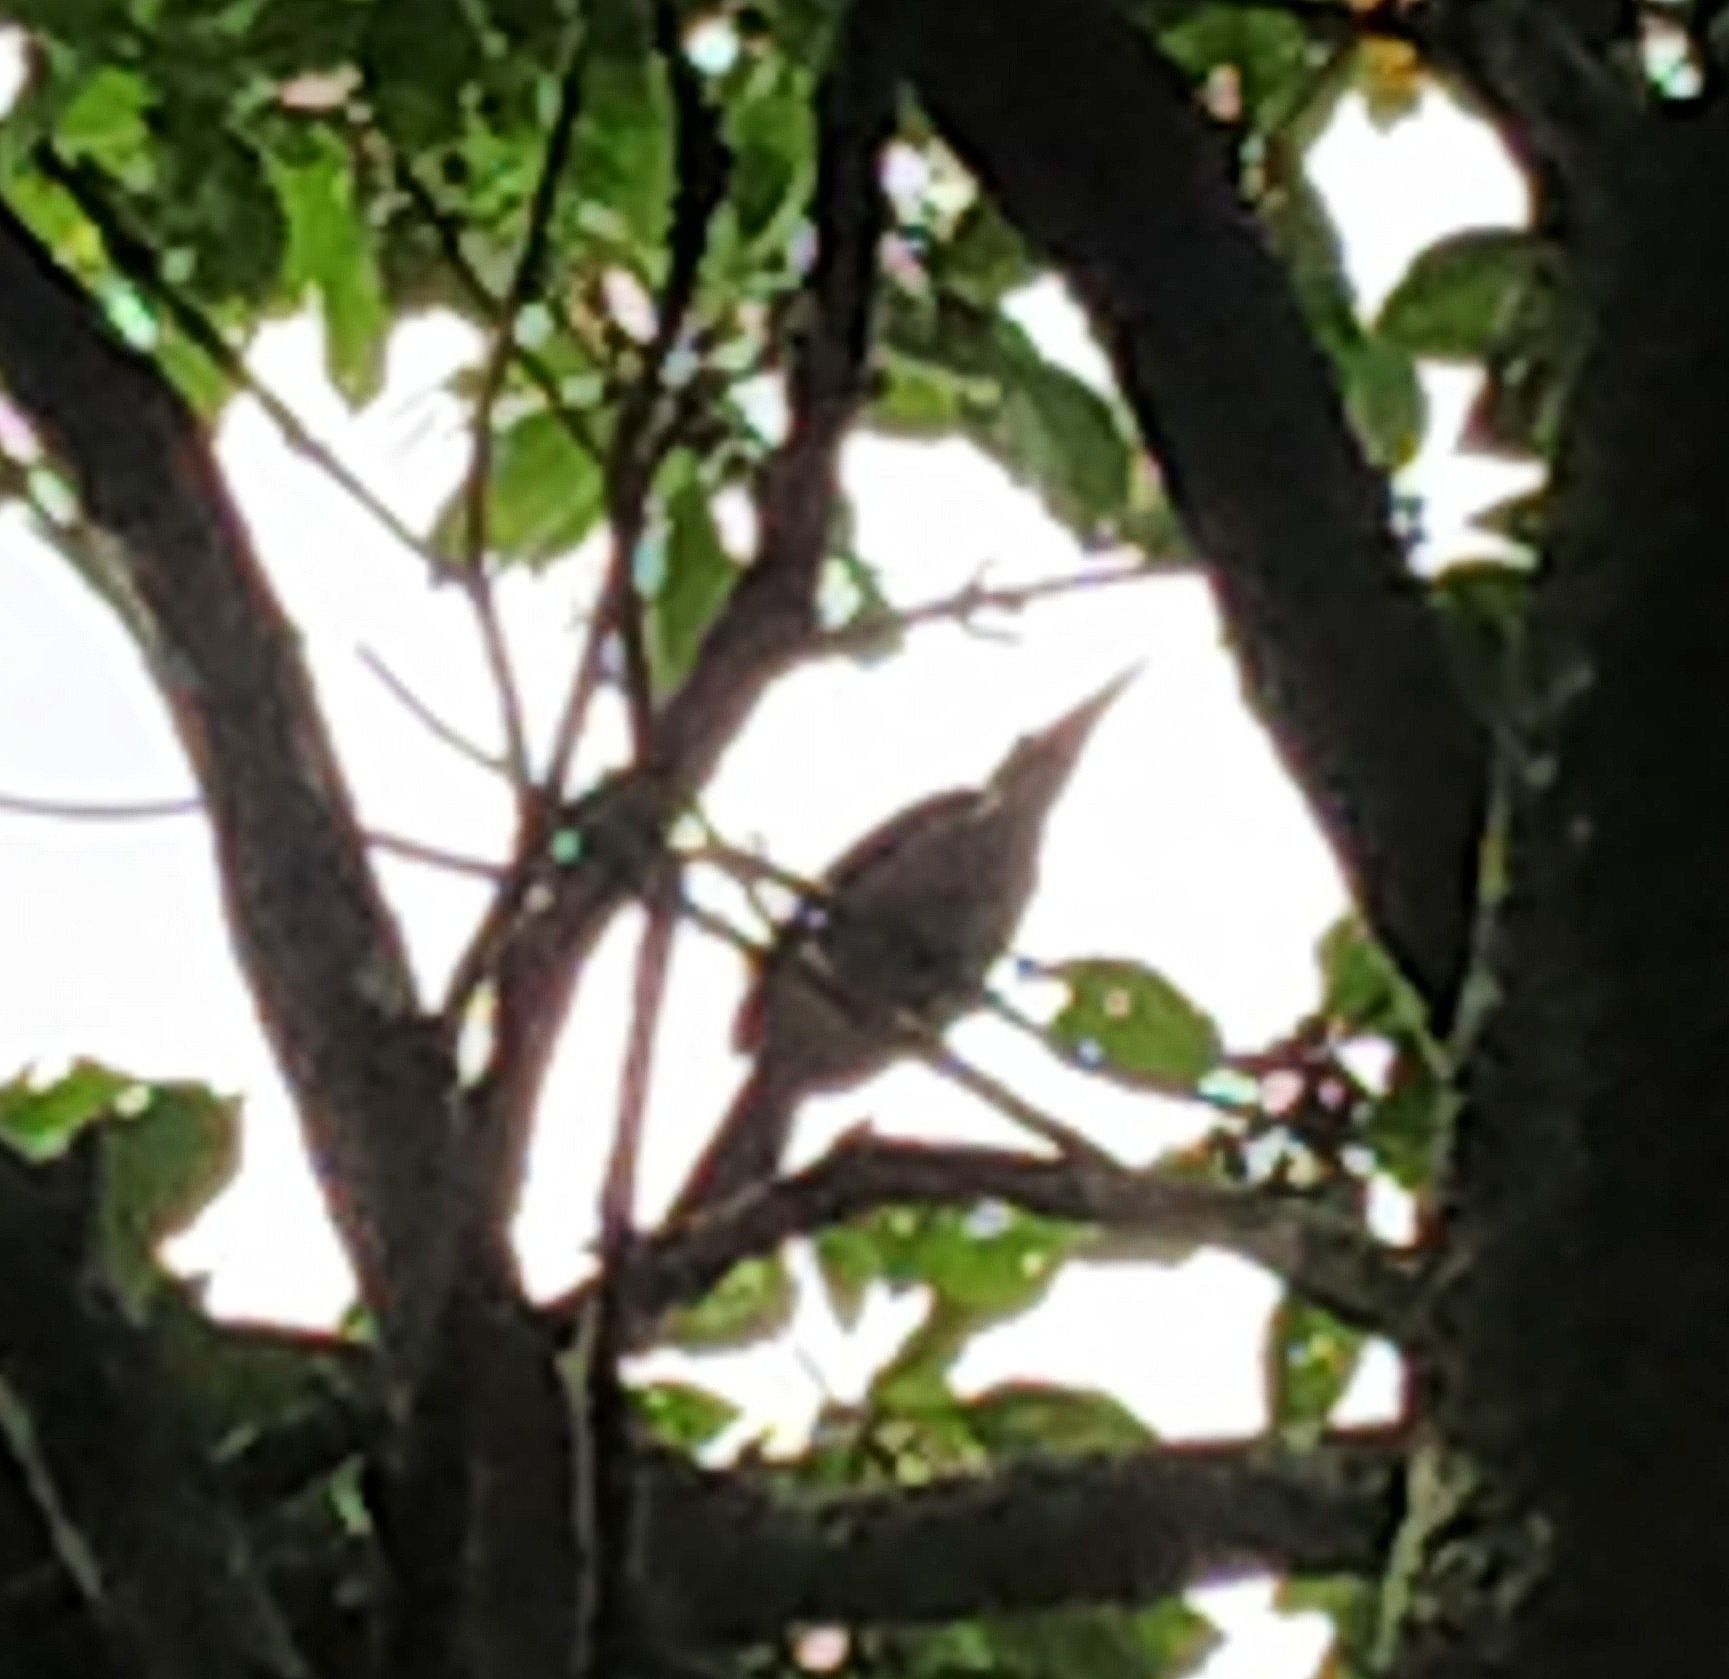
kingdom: Animalia
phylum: Chordata
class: Aves
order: Bucerotiformes
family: Bucerotidae
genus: Ocyceros
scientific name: Ocyceros griseus
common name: Malabar grey hornbill
